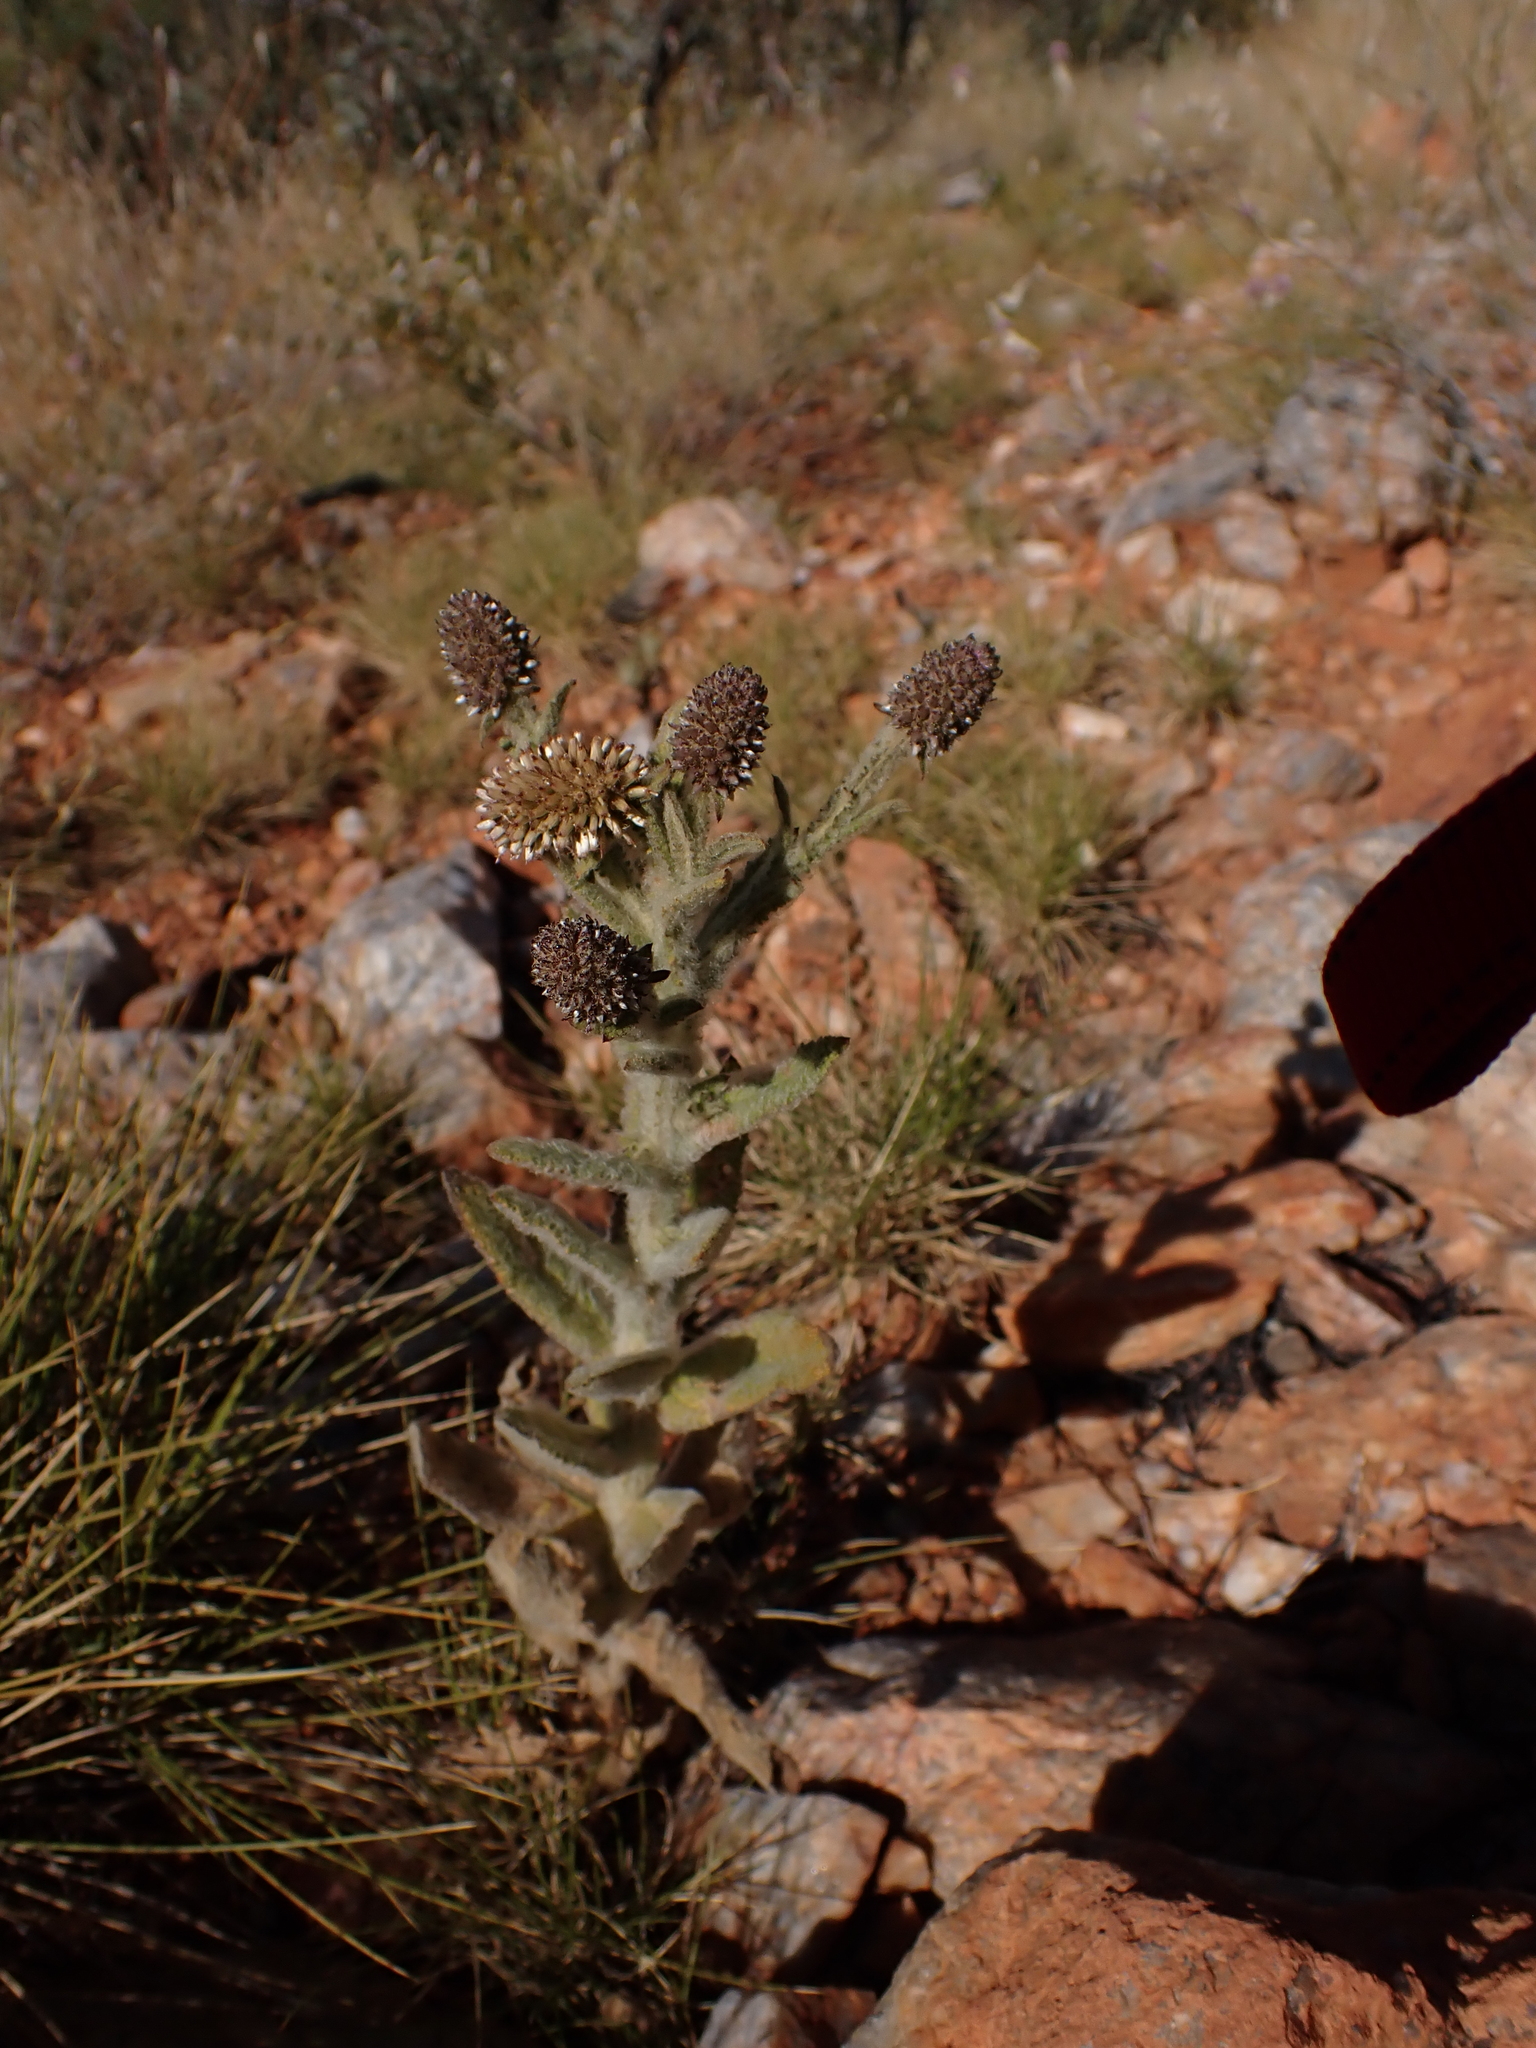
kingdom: Plantae
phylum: Tracheophyta
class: Magnoliopsida
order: Asterales
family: Asteraceae
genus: Pterocaulon
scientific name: Pterocaulon serrulatum
